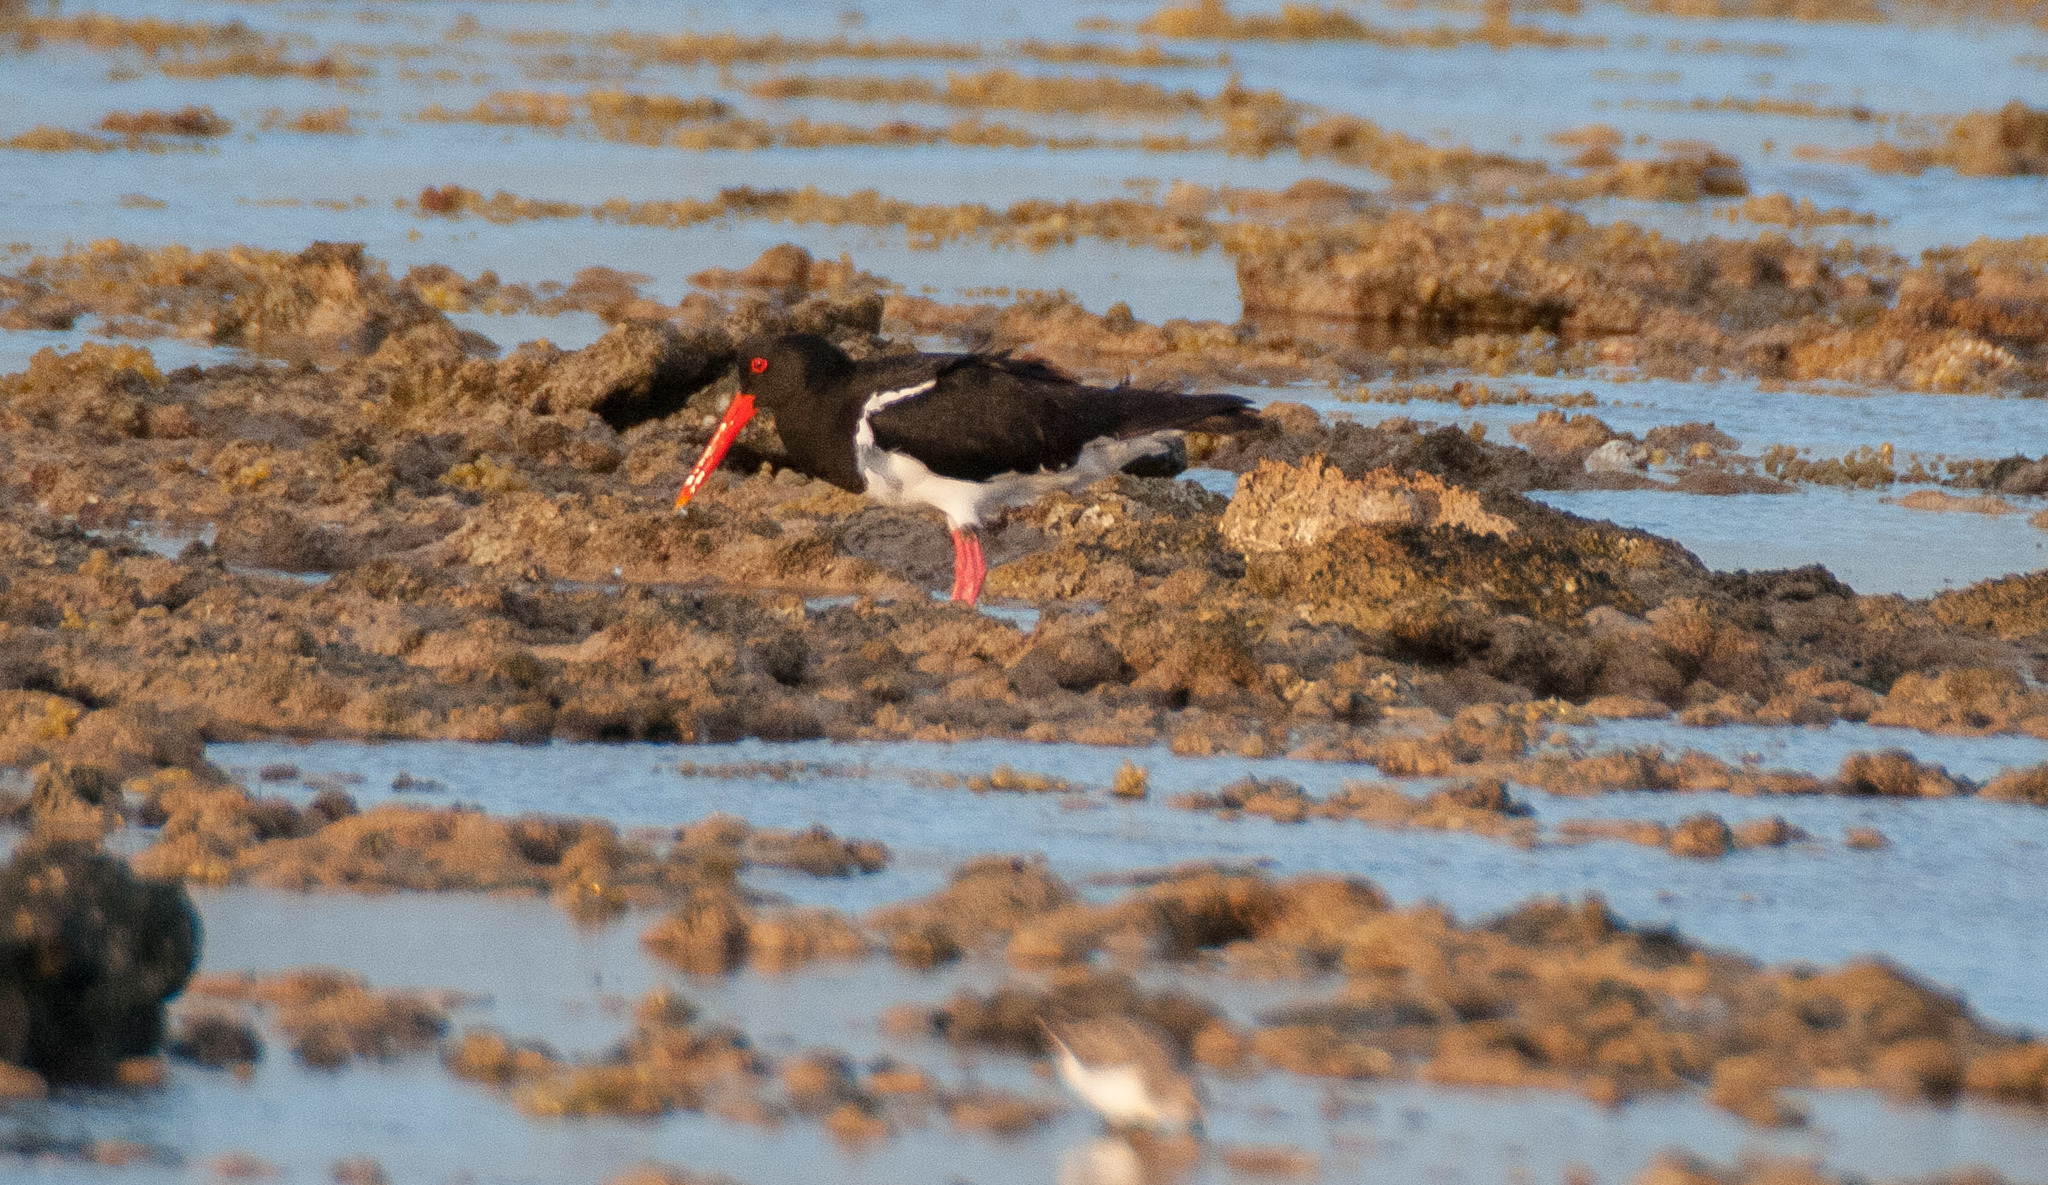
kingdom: Animalia
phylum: Chordata
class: Aves
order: Charadriiformes
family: Haematopodidae
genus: Haematopus
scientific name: Haematopus longirostris
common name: Pied oystercatcher
